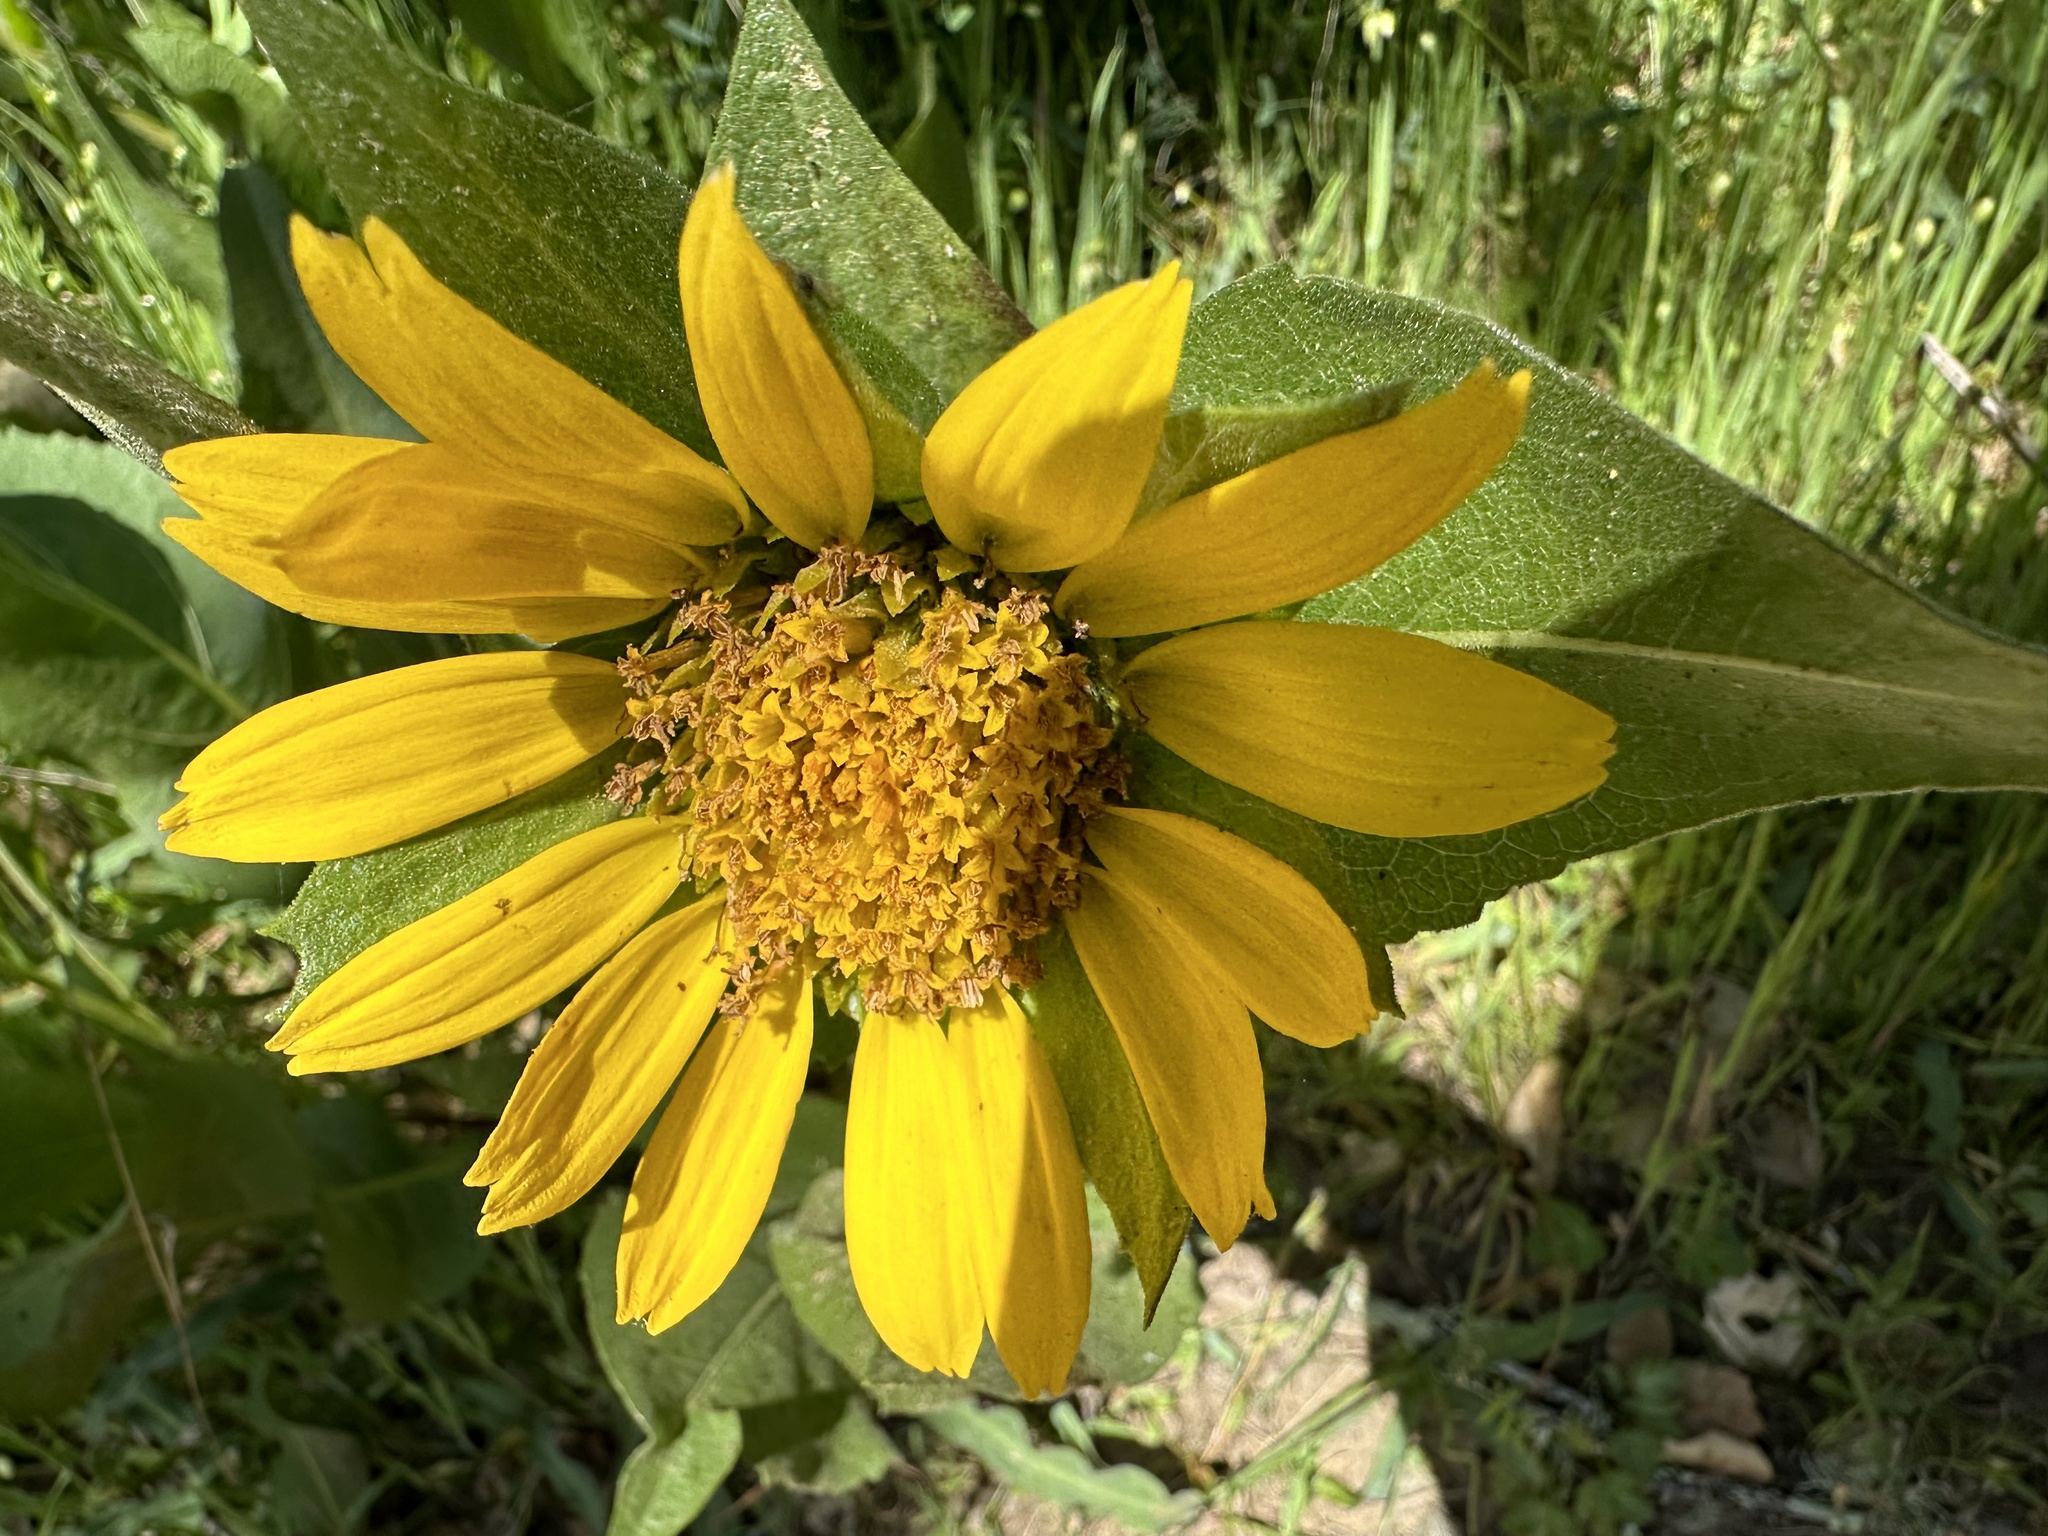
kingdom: Plantae
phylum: Tracheophyta
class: Magnoliopsida
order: Asterales
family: Asteraceae
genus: Wyethia
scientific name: Wyethia glabra
